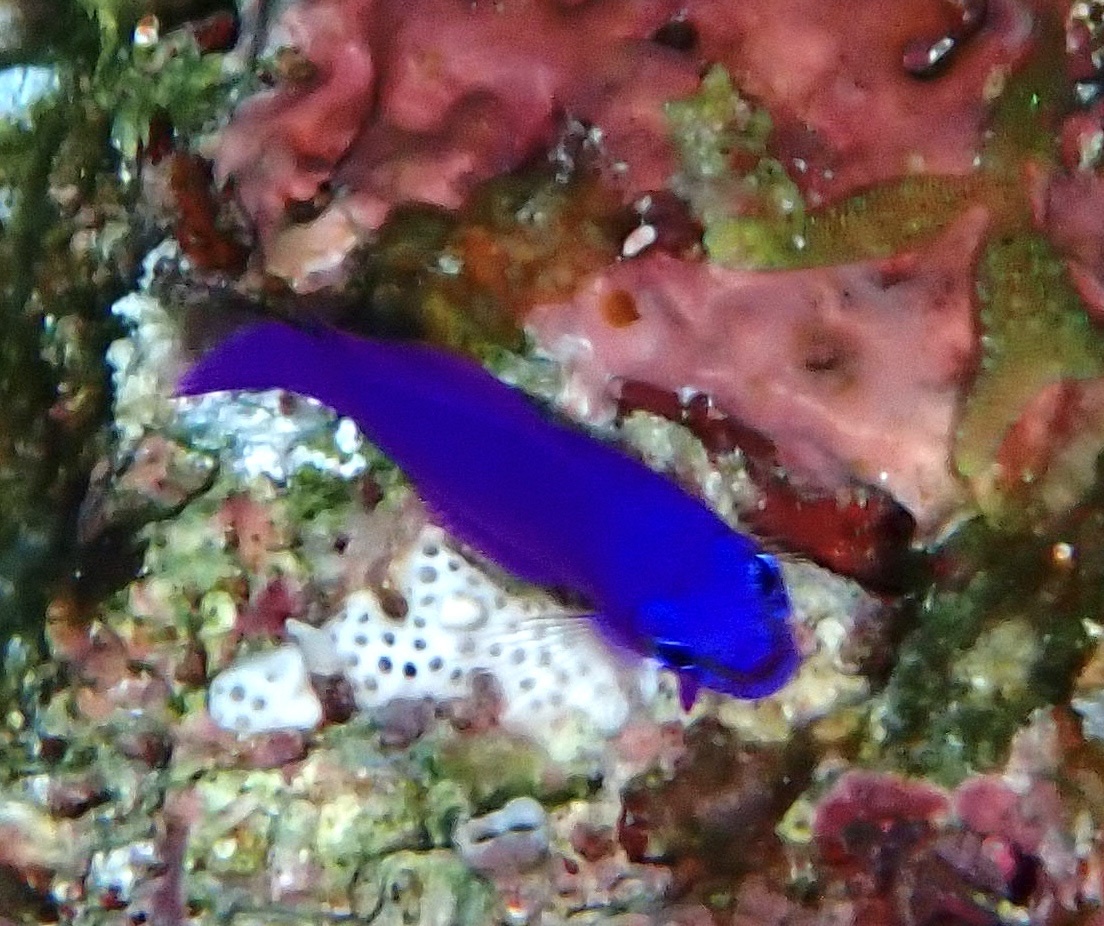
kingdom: Animalia
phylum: Chordata
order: Perciformes
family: Pseudochromidae
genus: Pseudochromis
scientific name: Pseudochromis fridmani
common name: Orchid dottyback
